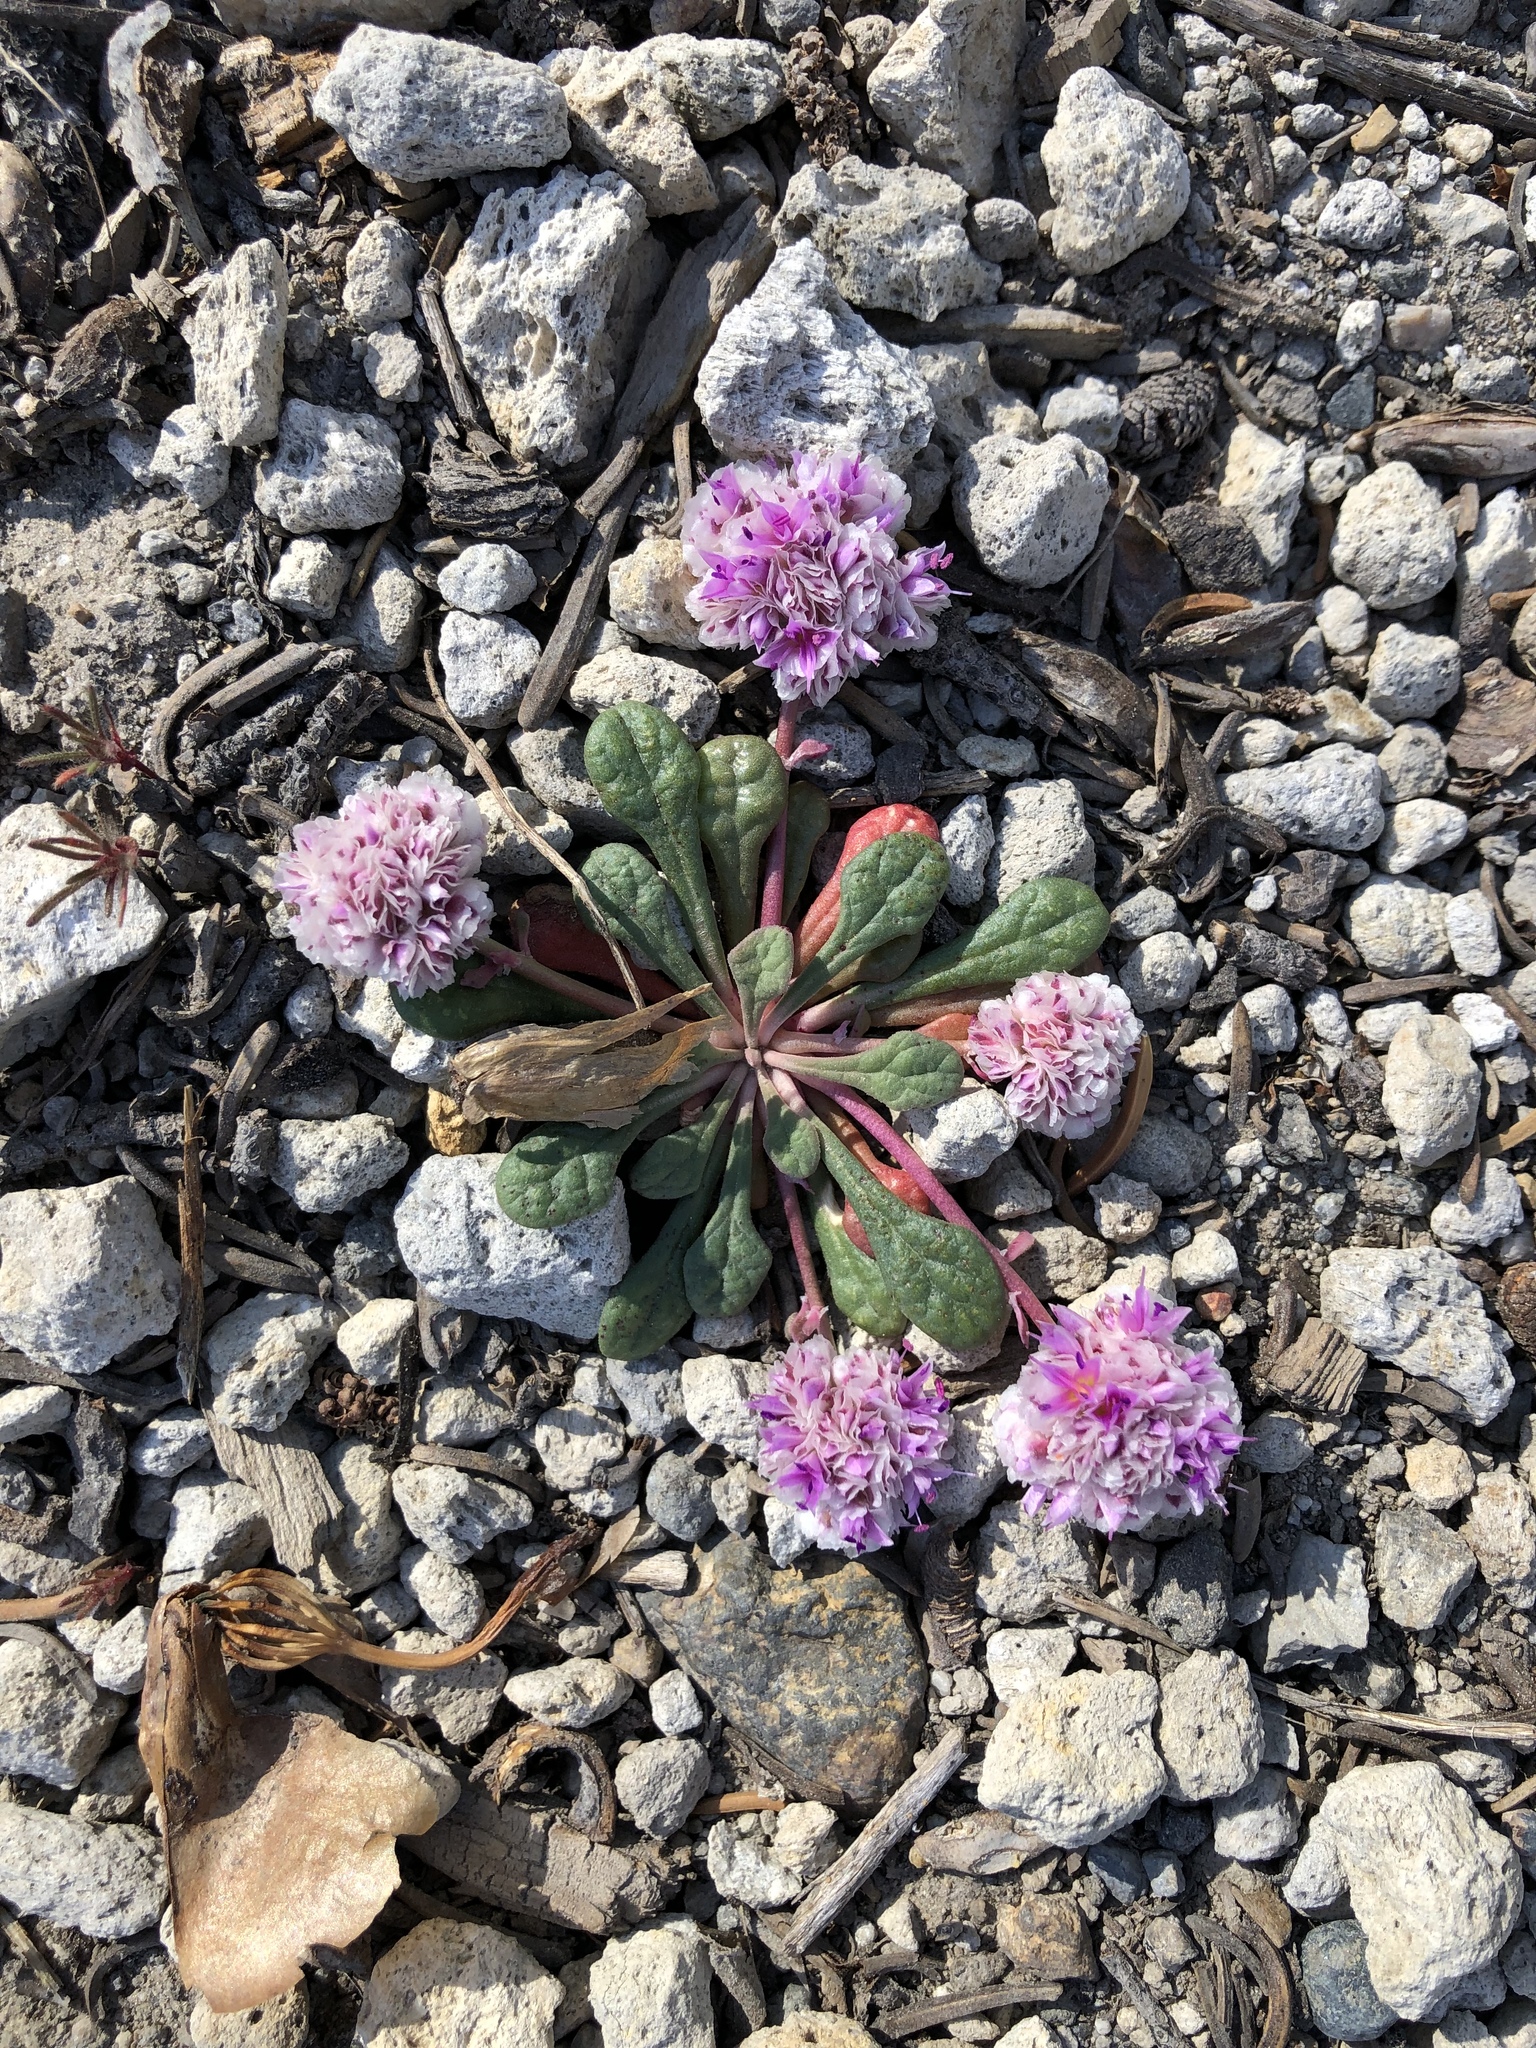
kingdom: Plantae
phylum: Tracheophyta
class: Magnoliopsida
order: Caryophyllales
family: Montiaceae
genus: Calyptridium
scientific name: Calyptridium monospermum
